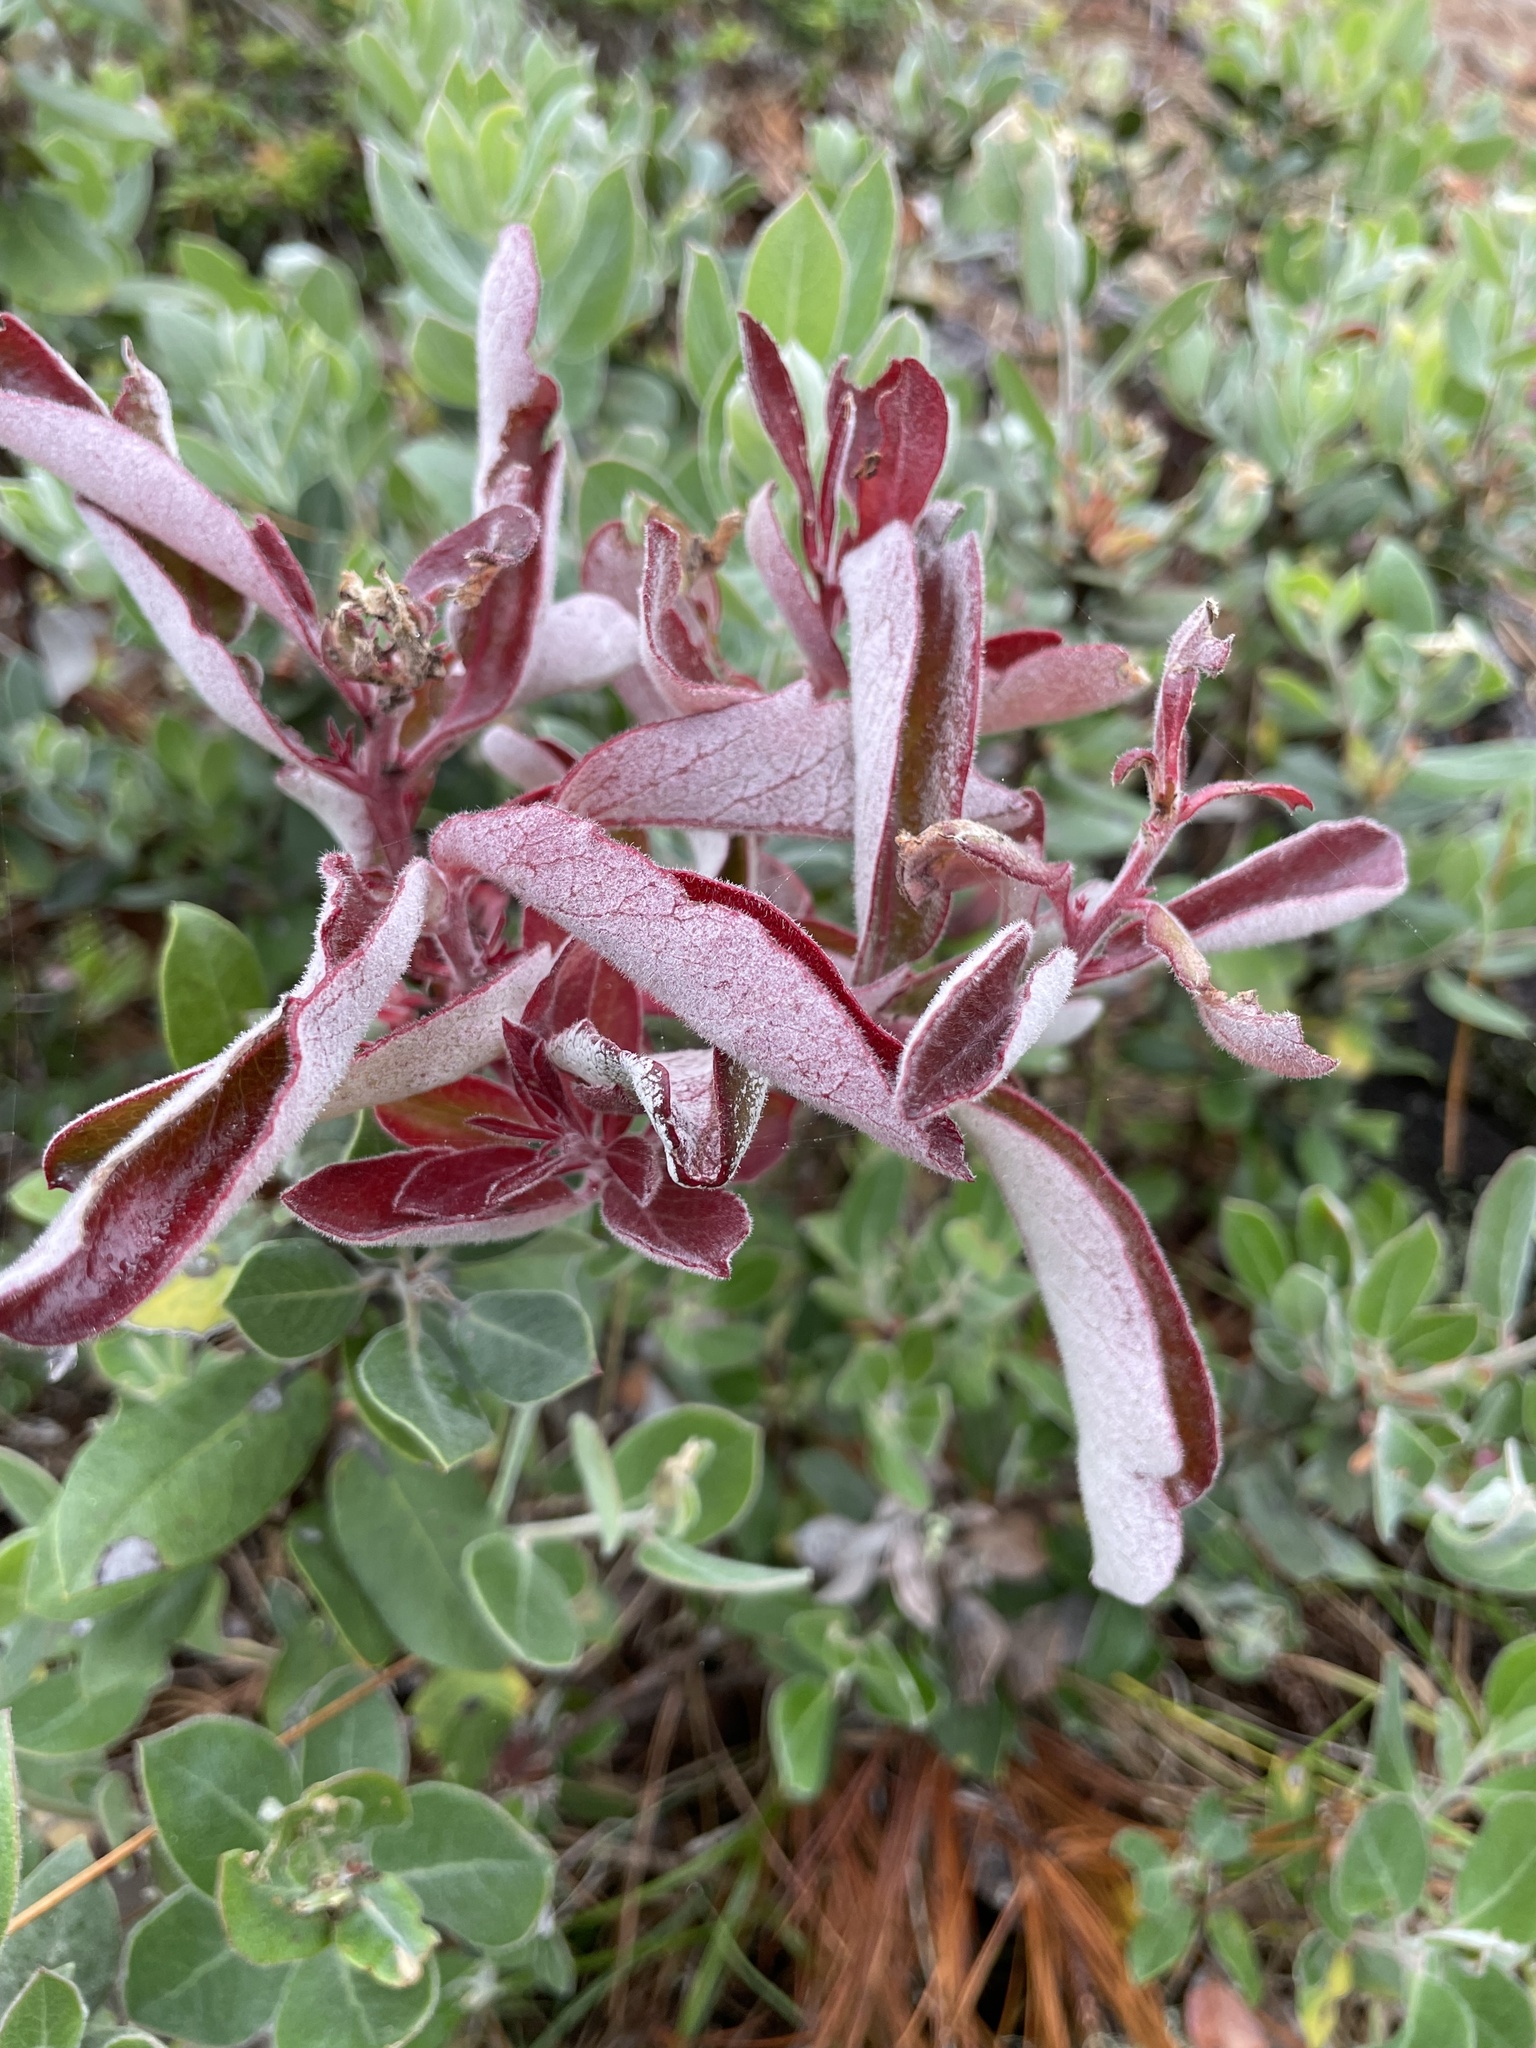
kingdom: Fungi
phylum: Basidiomycota
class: Exobasidiomycetes
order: Exobasidiales
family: Exobasidiaceae
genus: Exobasidium
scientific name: Exobasidium arctostaphyli
